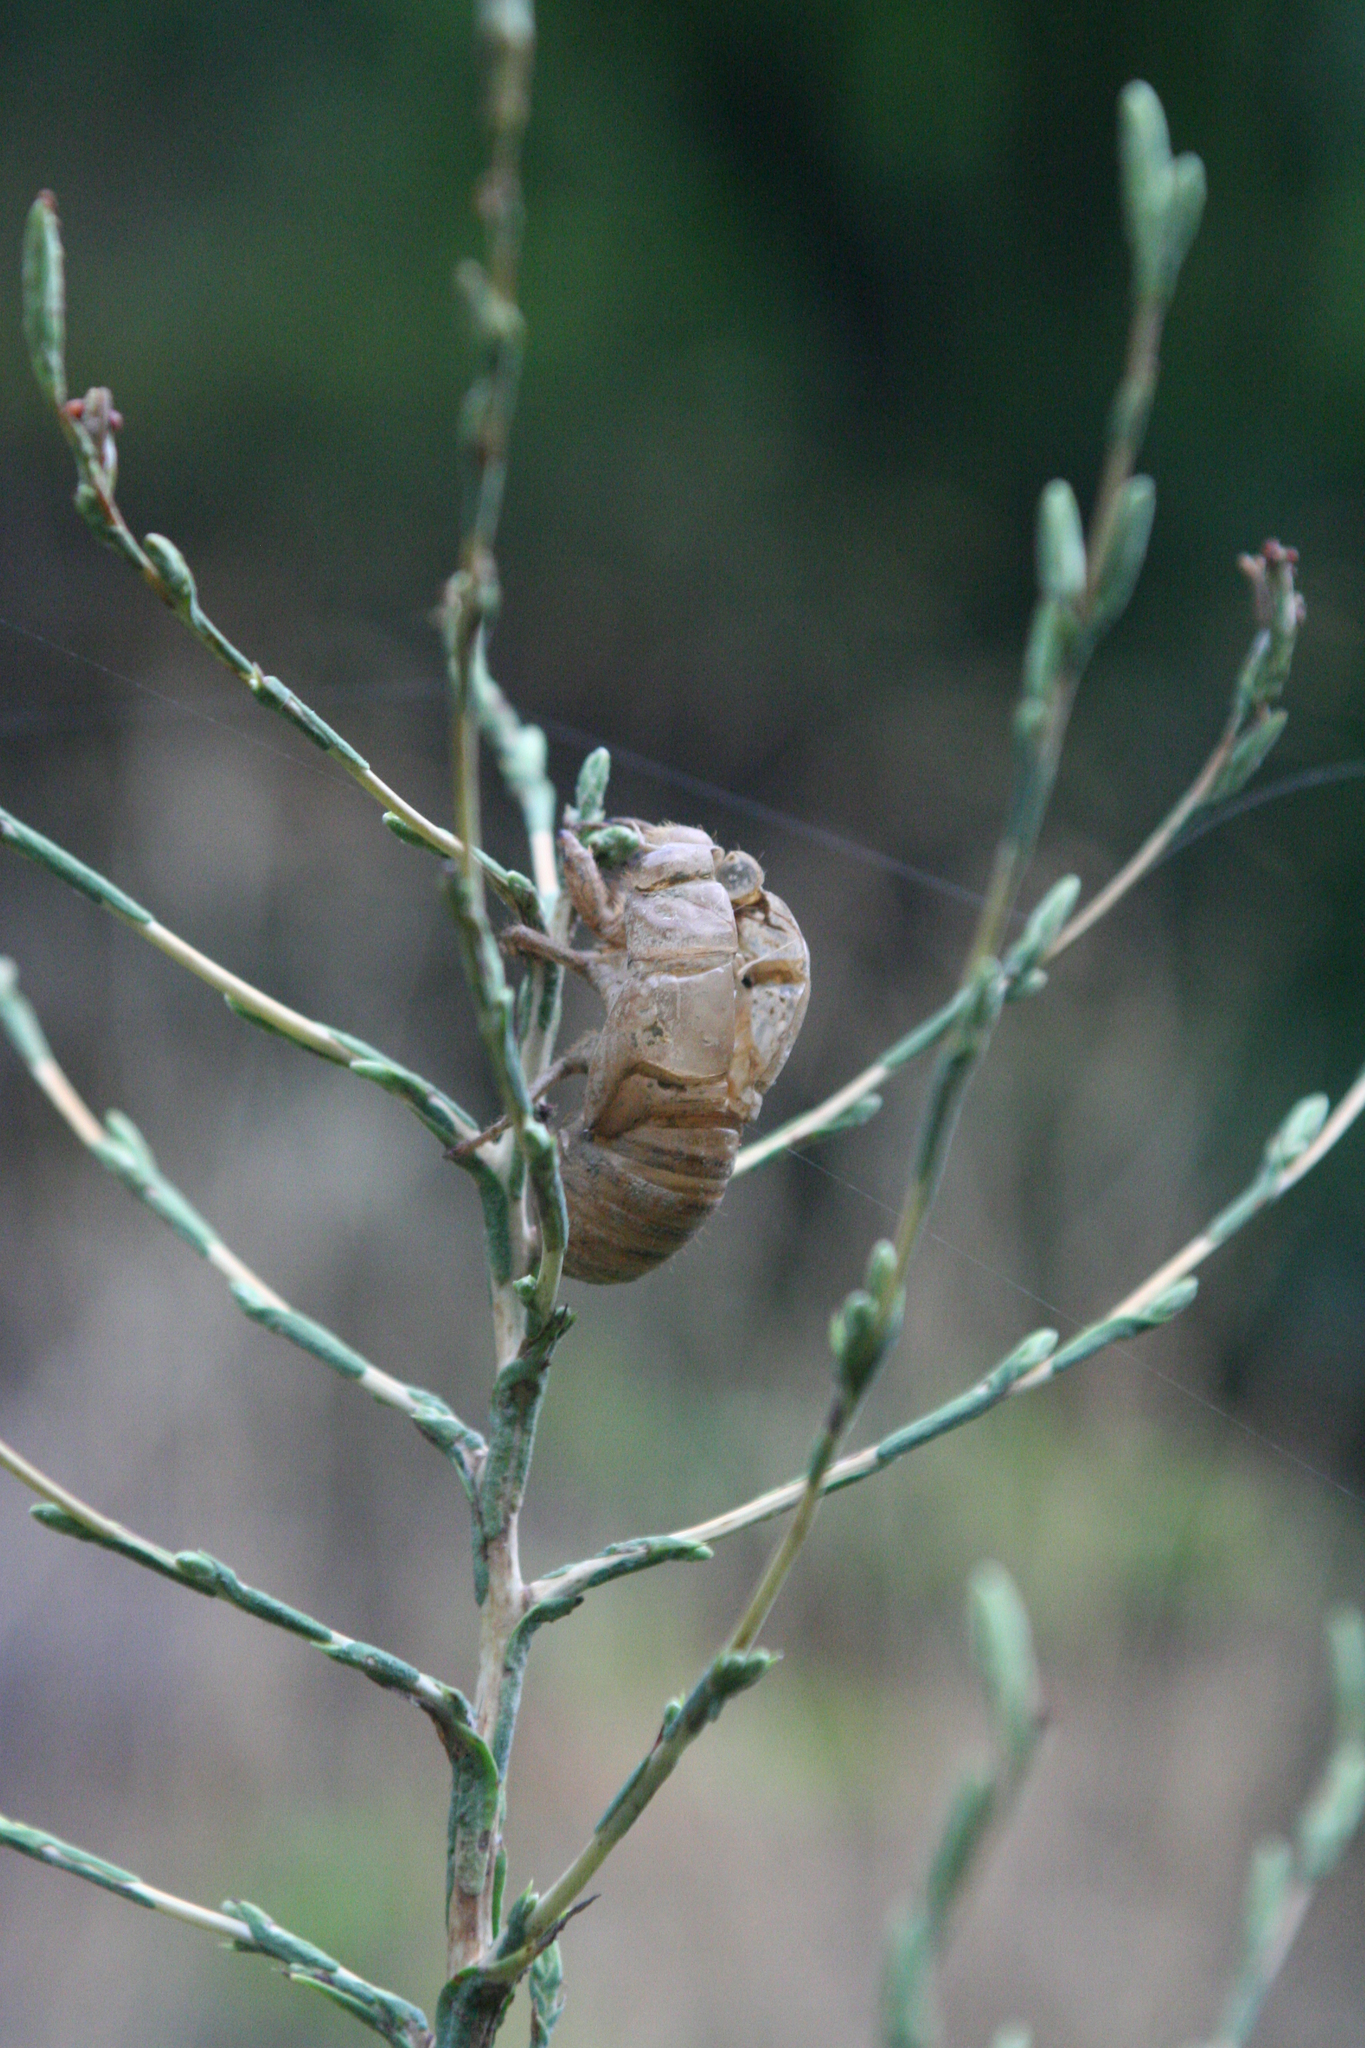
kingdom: Animalia
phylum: Arthropoda
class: Insecta
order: Hemiptera
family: Cicadidae
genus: Lyristes
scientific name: Lyristes plebejus
